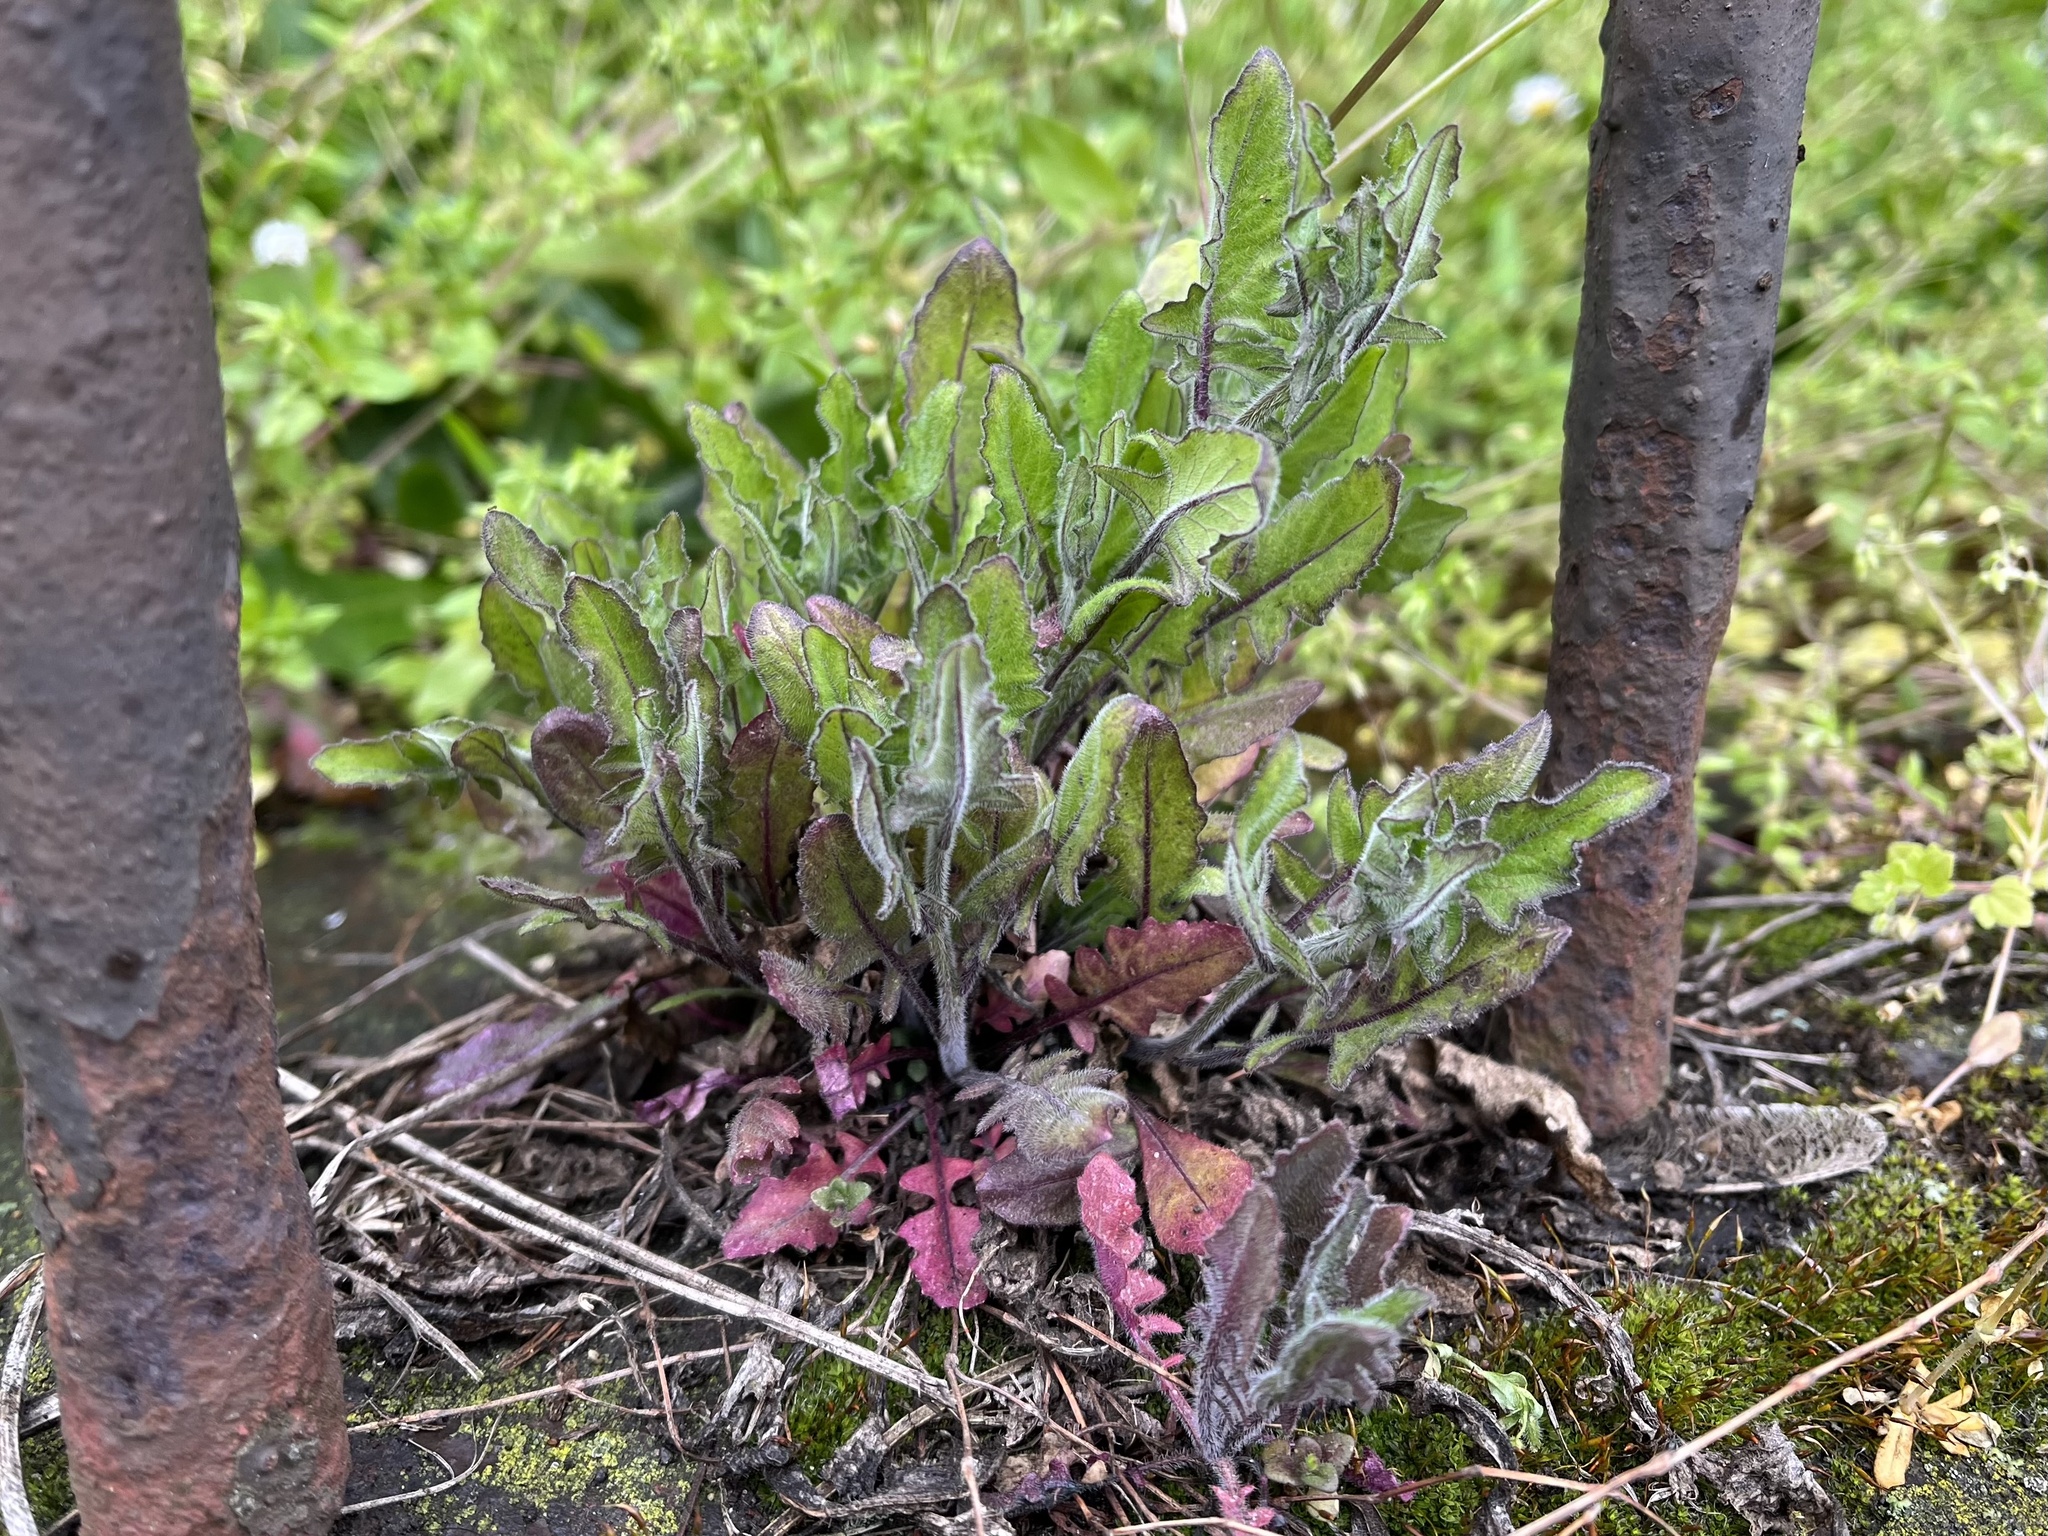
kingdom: Plantae
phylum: Tracheophyta
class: Magnoliopsida
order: Brassicales
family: Brassicaceae
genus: Sisymbrium
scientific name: Sisymbrium loeselii
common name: False london-rocket
